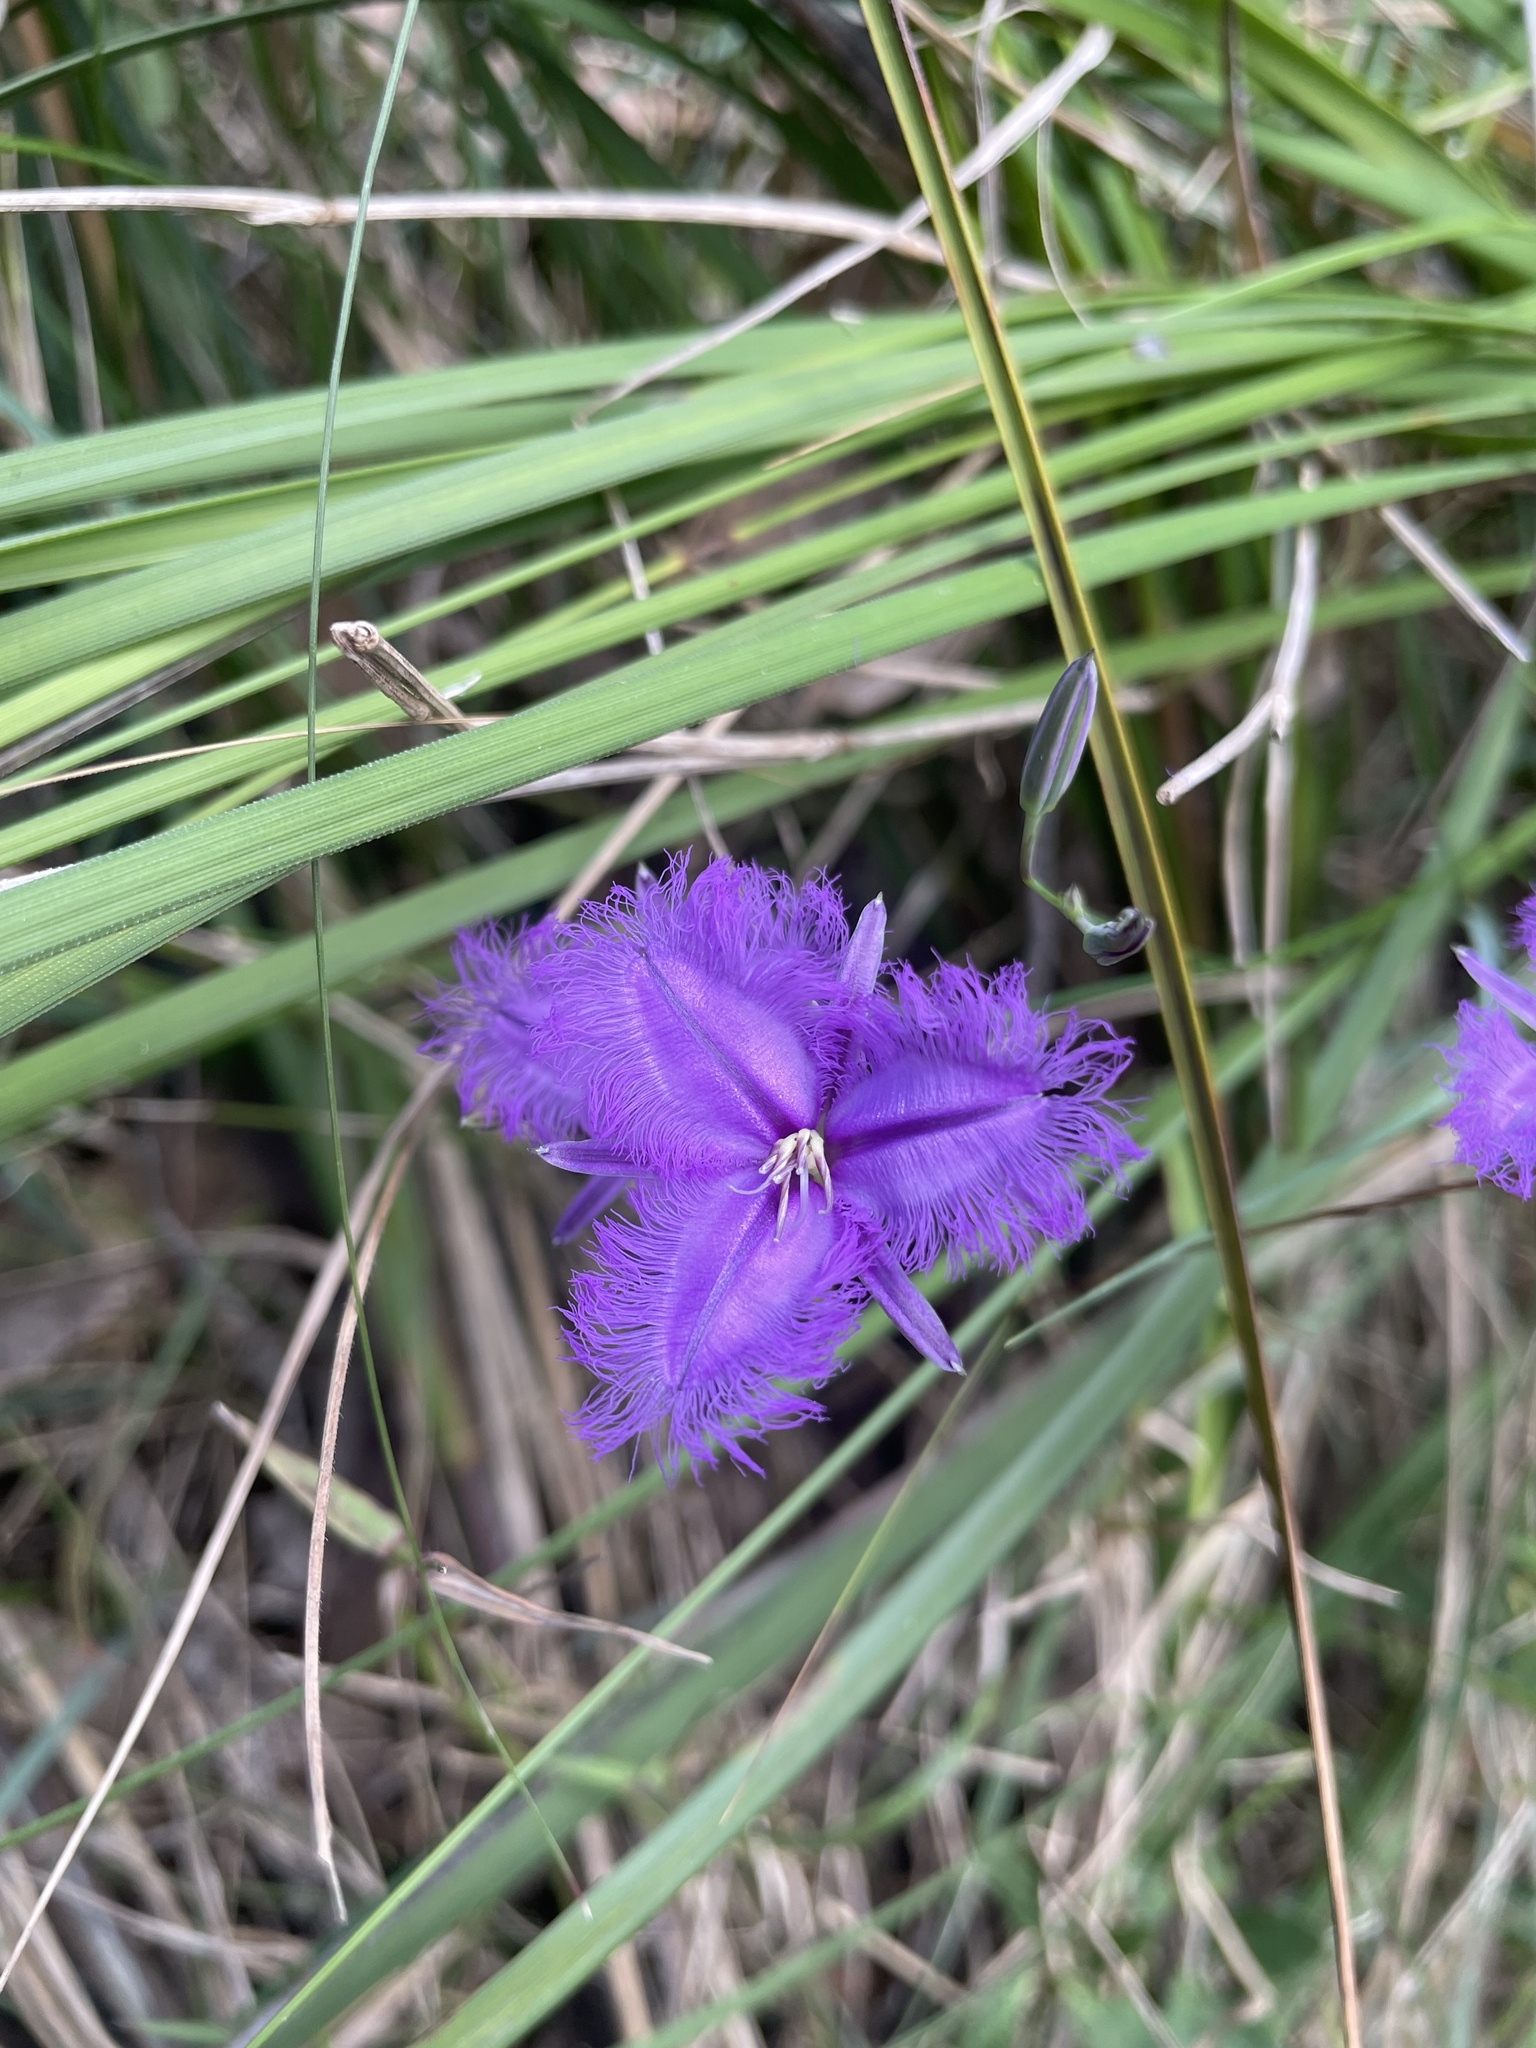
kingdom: Plantae
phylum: Tracheophyta
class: Liliopsida
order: Asparagales
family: Asparagaceae
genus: Thysanotus
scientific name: Thysanotus tuberosus
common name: Common fringed-lily
